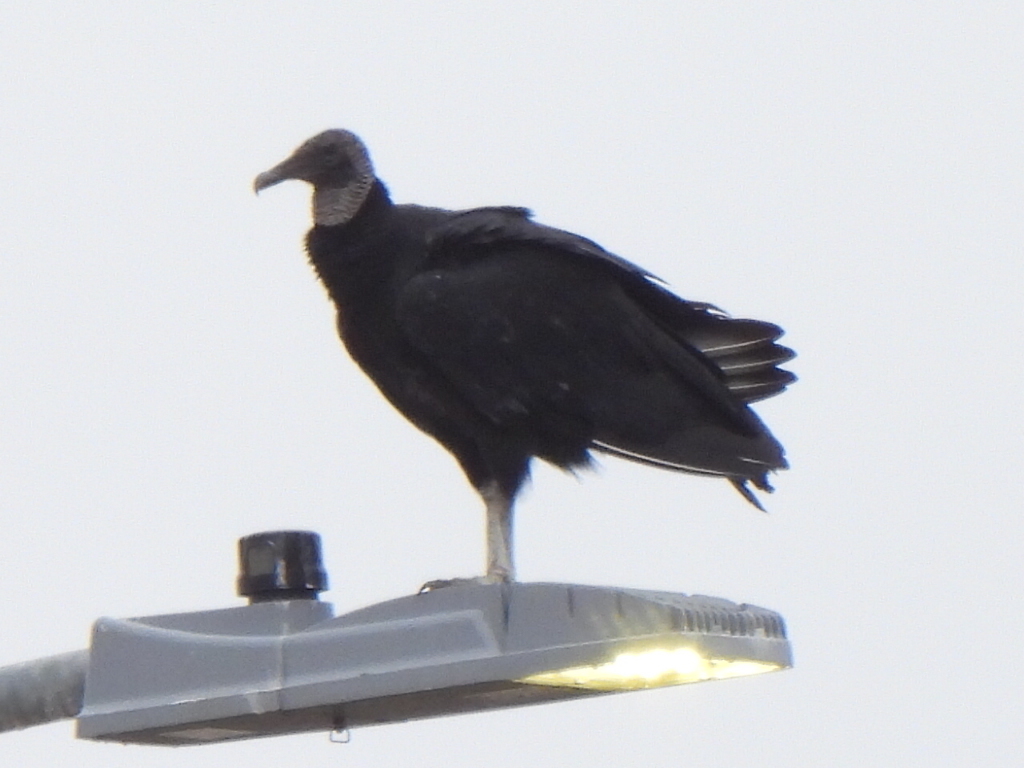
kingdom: Animalia
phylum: Chordata
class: Aves
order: Accipitriformes
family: Cathartidae
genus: Coragyps
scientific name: Coragyps atratus
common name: Black vulture
